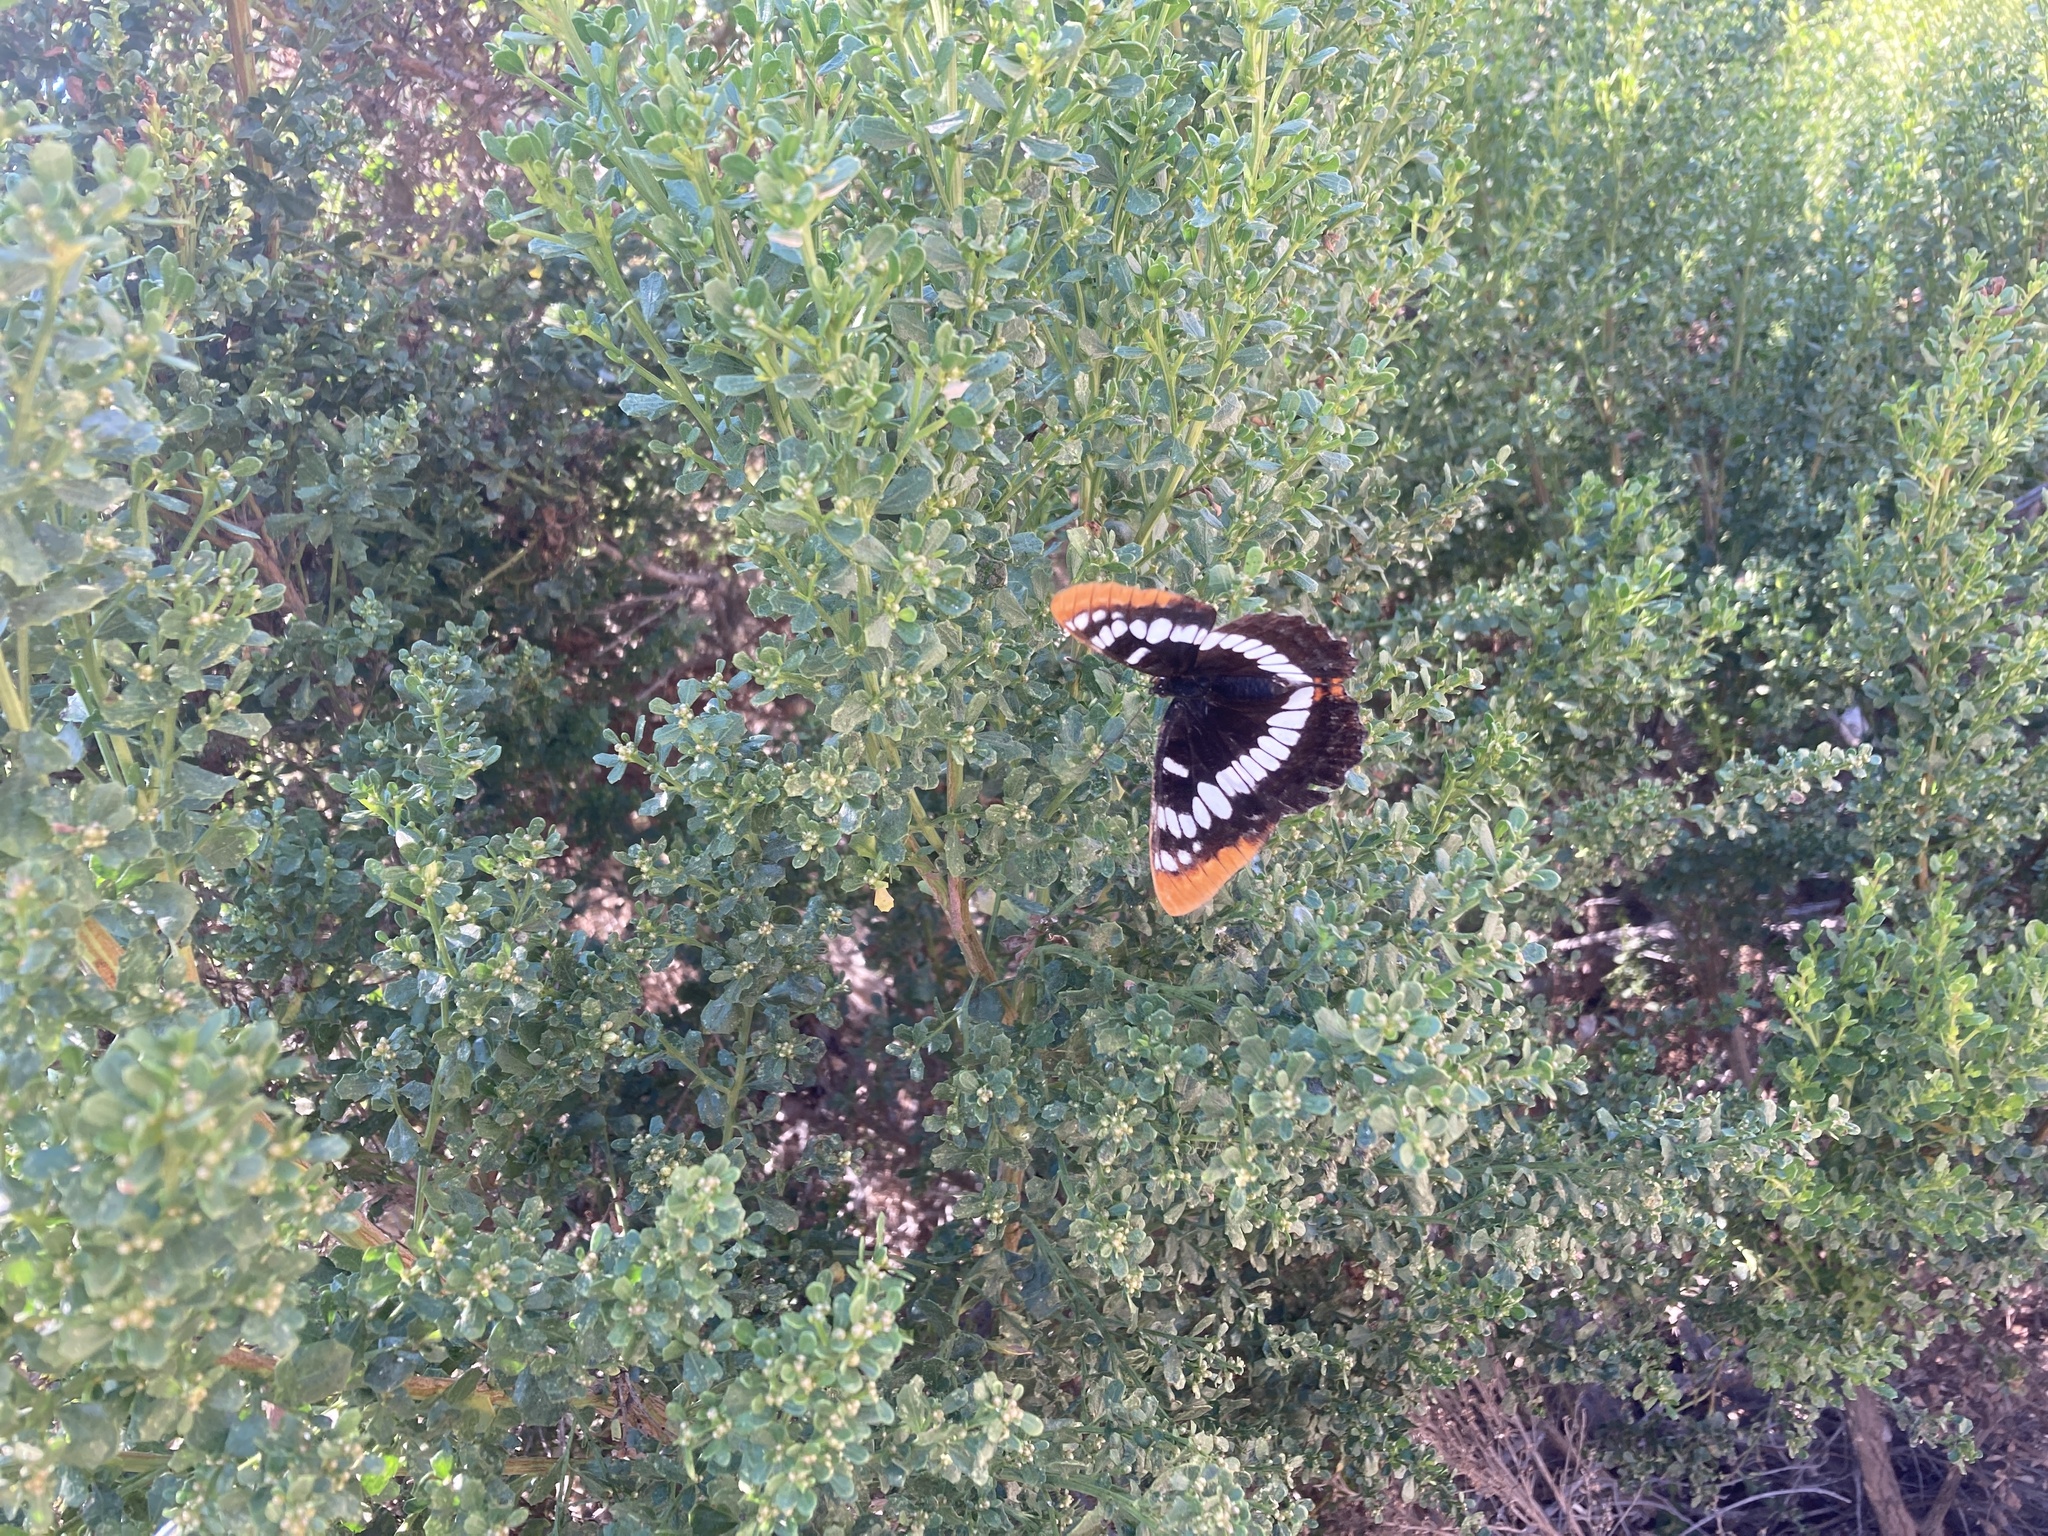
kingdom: Animalia
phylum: Arthropoda
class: Insecta
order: Lepidoptera
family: Nymphalidae
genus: Limenitis
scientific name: Limenitis lorquini
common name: Lorquin's admiral
